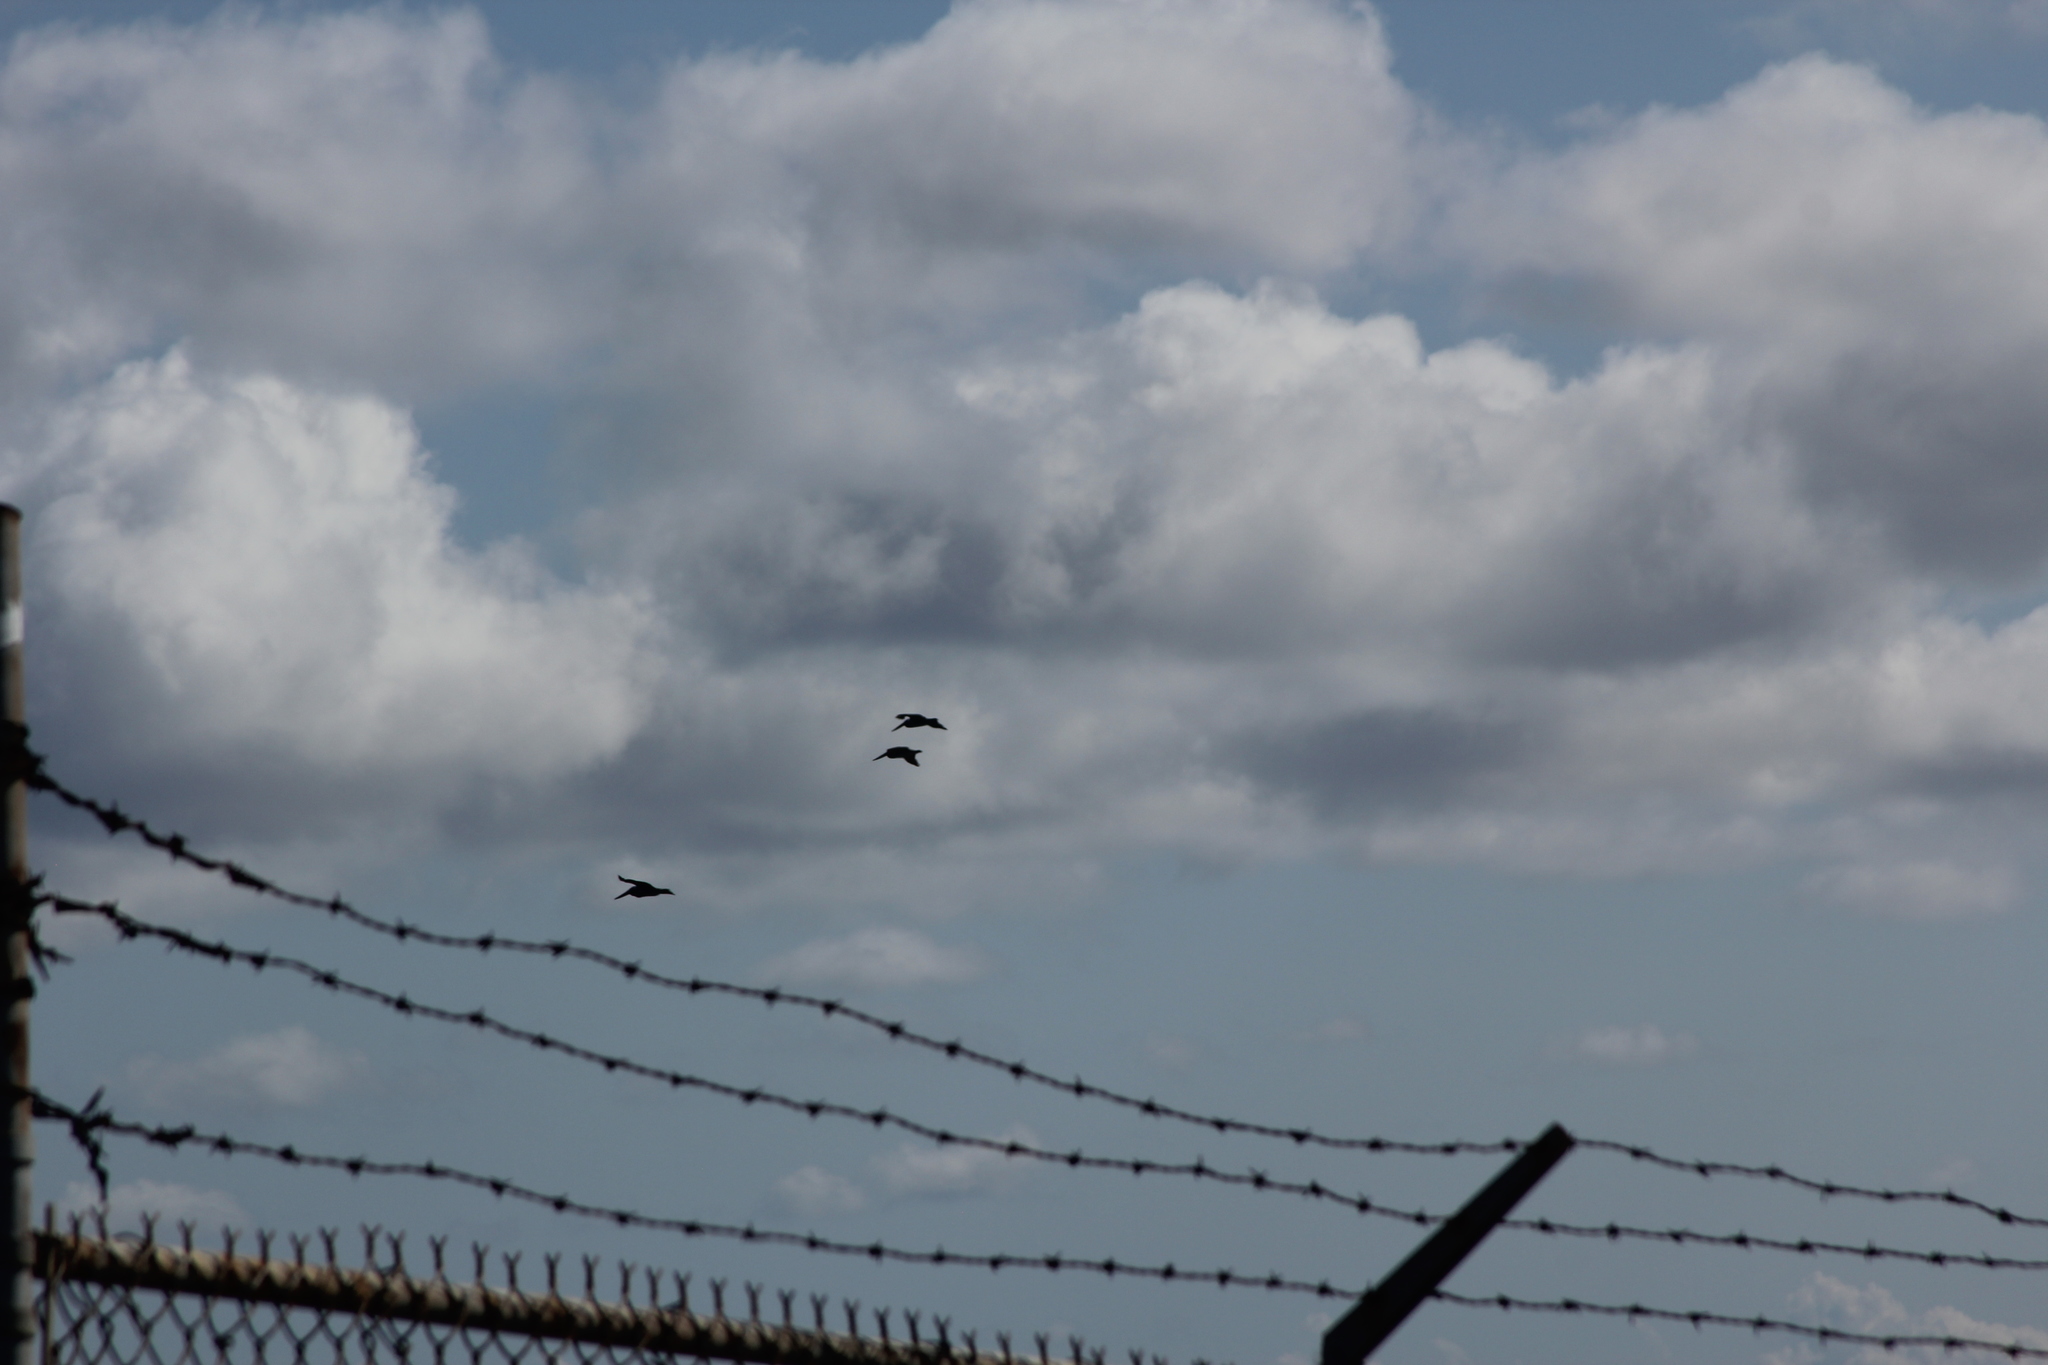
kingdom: Animalia
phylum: Chordata
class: Aves
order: Pelecaniformes
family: Pelecanidae
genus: Pelecanus
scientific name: Pelecanus occidentalis
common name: Brown pelican
